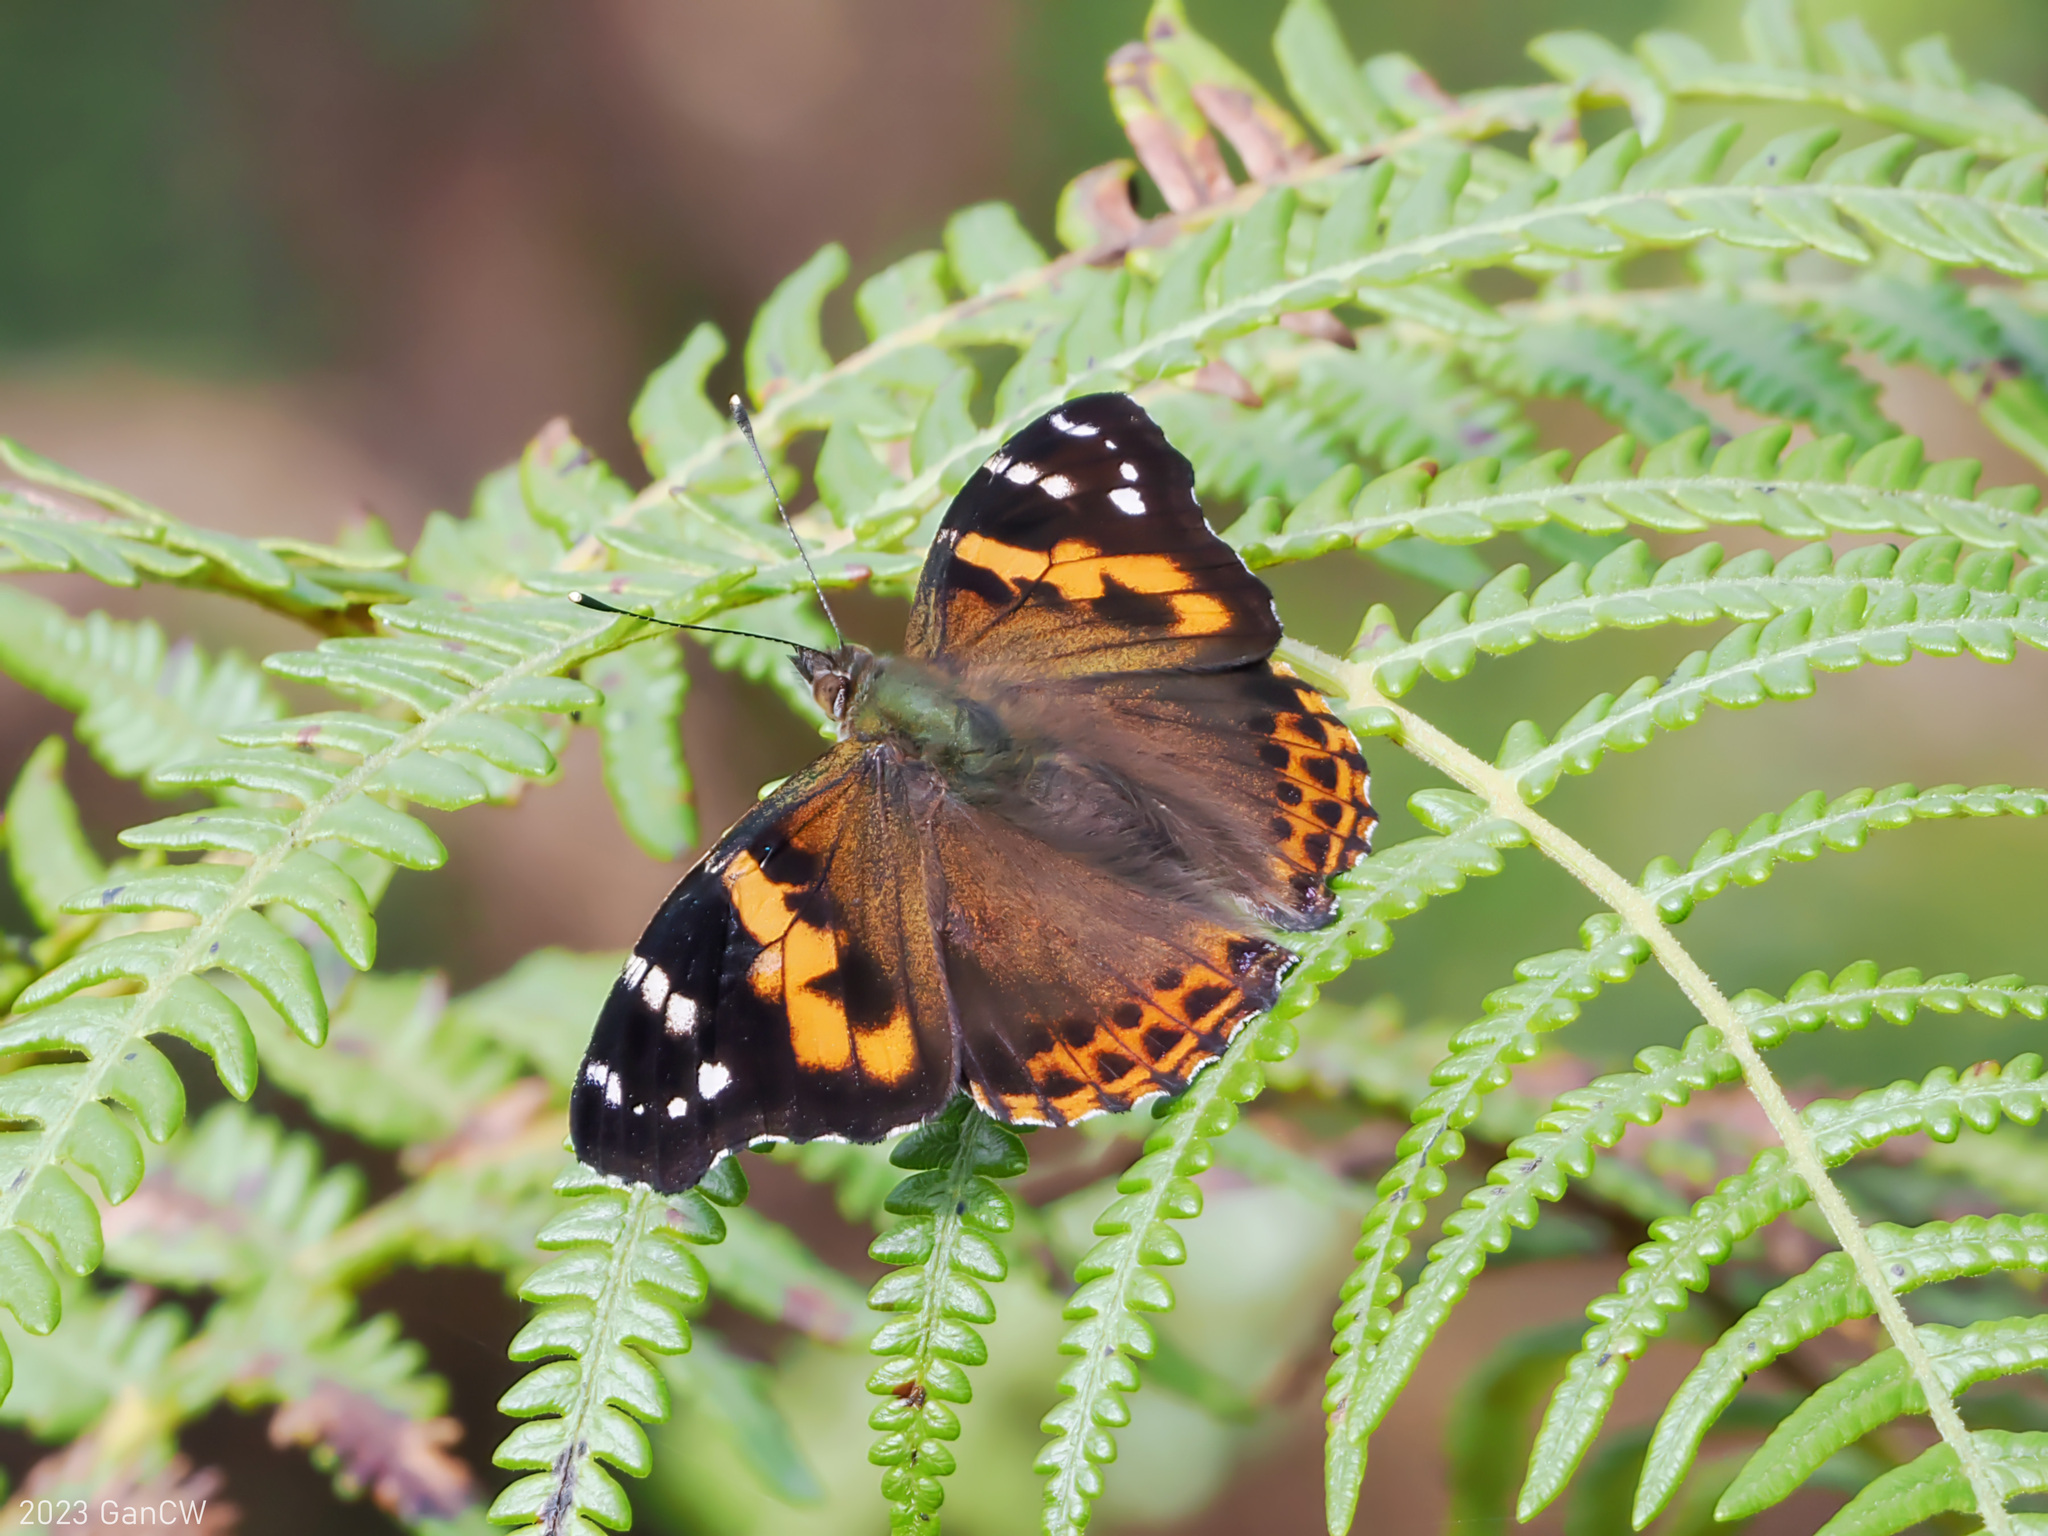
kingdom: Animalia
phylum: Arthropoda
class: Insecta
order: Lepidoptera
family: Nymphalidae
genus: Vanessa
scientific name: Vanessa buana
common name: Lompobatang lady
